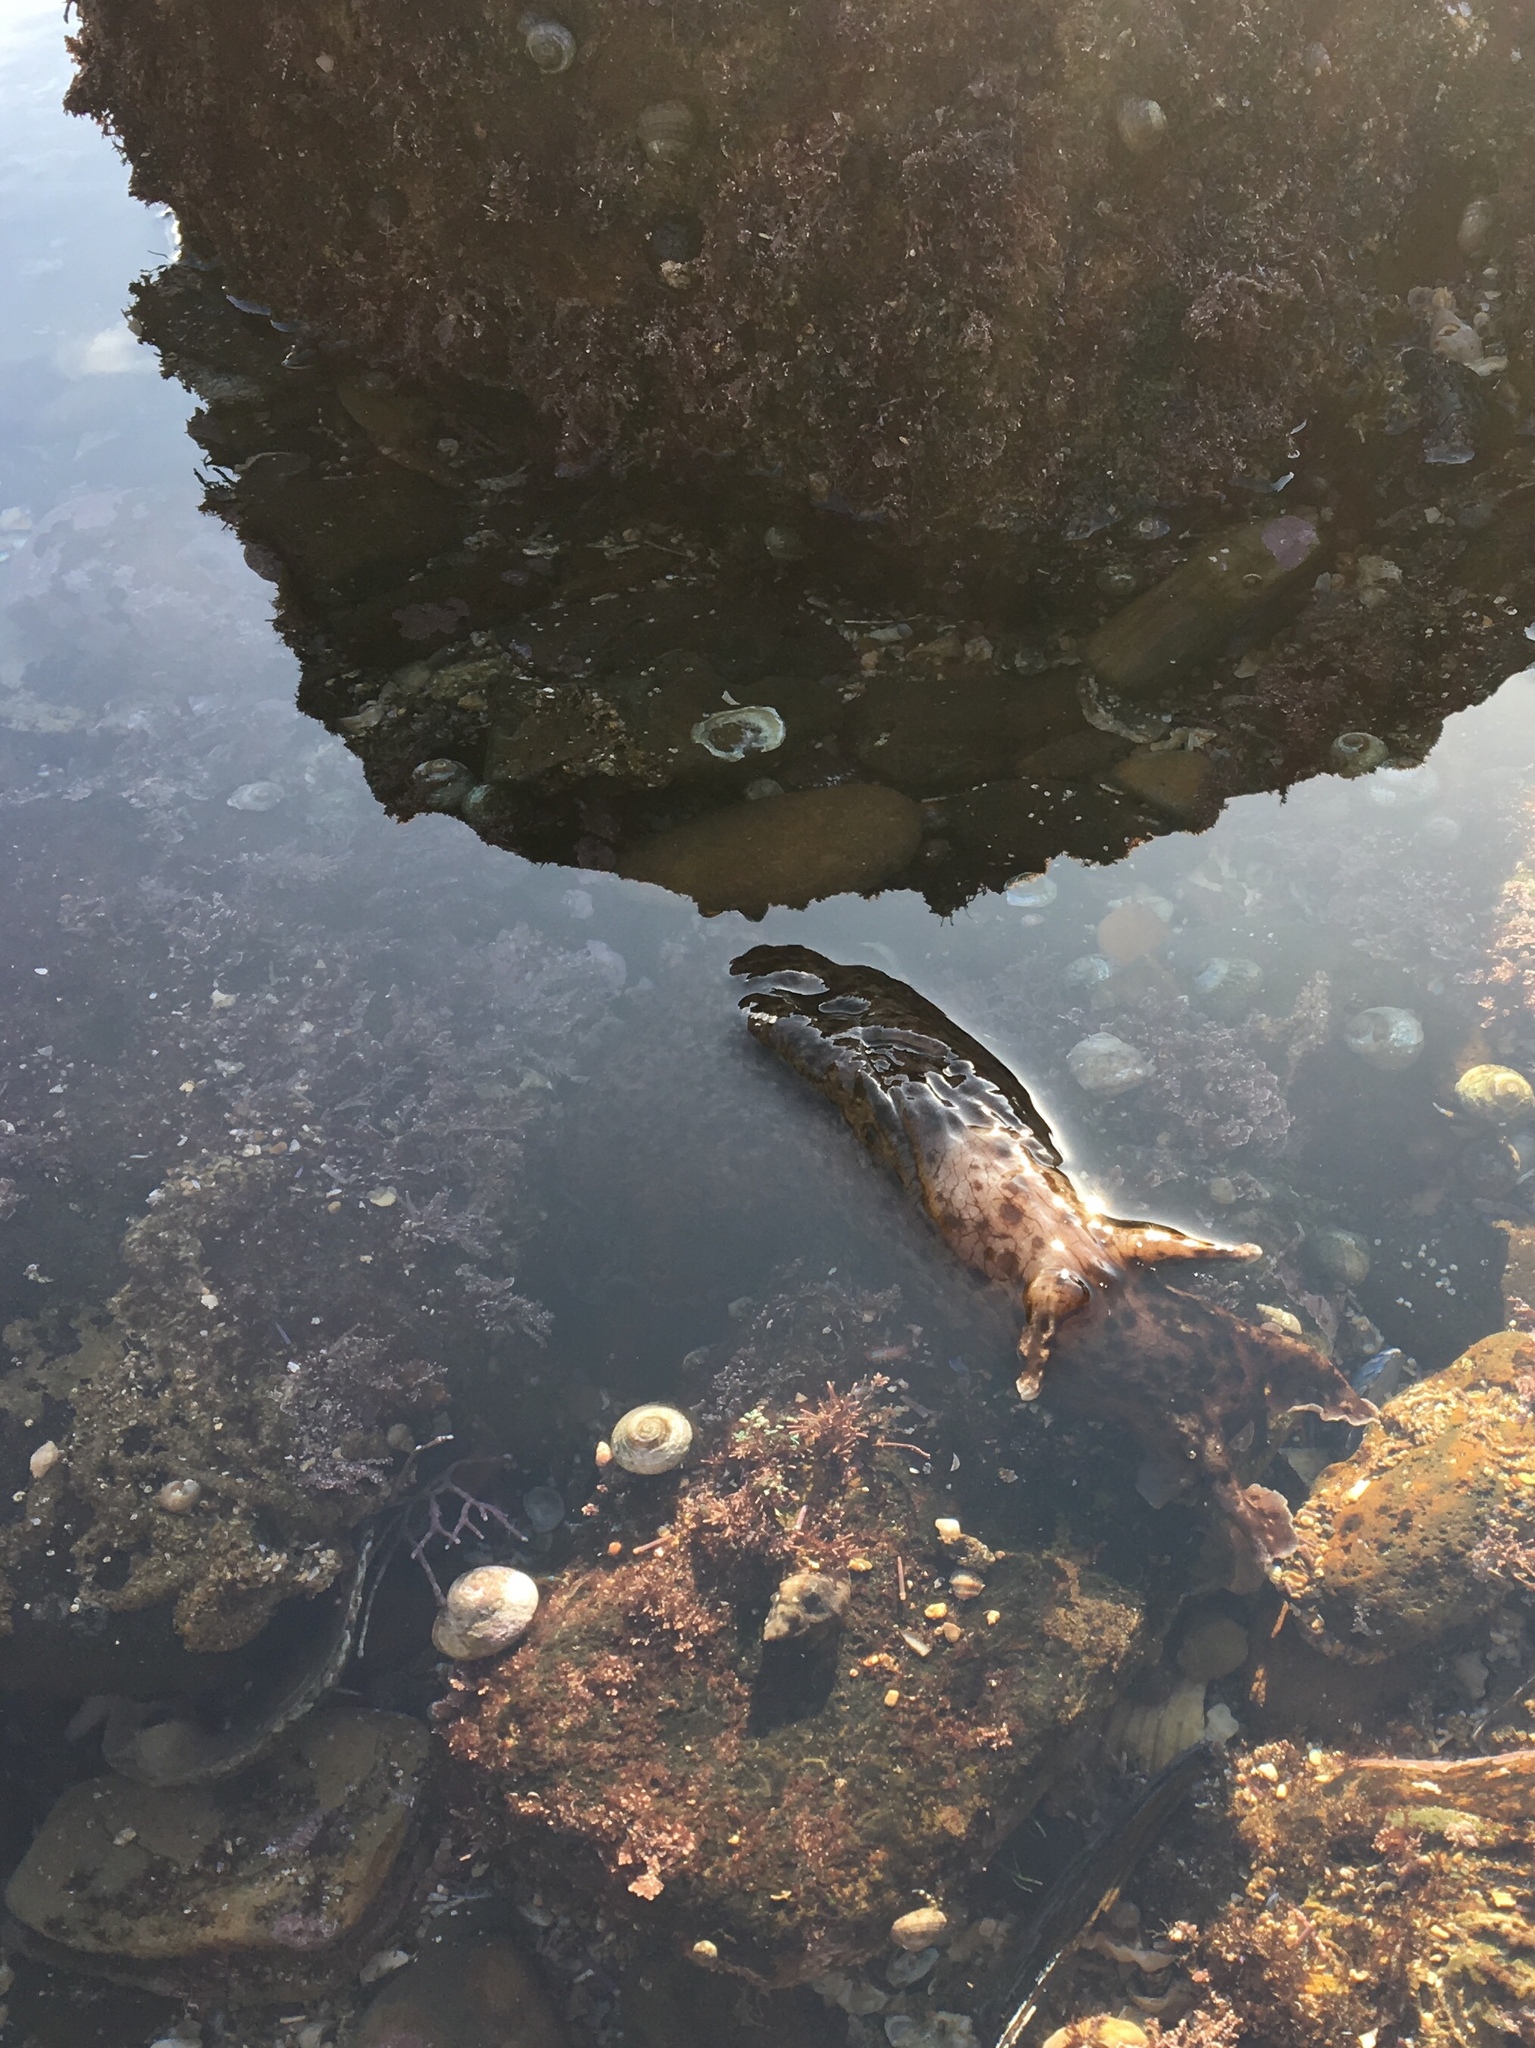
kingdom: Animalia
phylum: Mollusca
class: Gastropoda
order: Aplysiida
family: Aplysiidae
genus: Aplysia
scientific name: Aplysia californica
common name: California seahare
